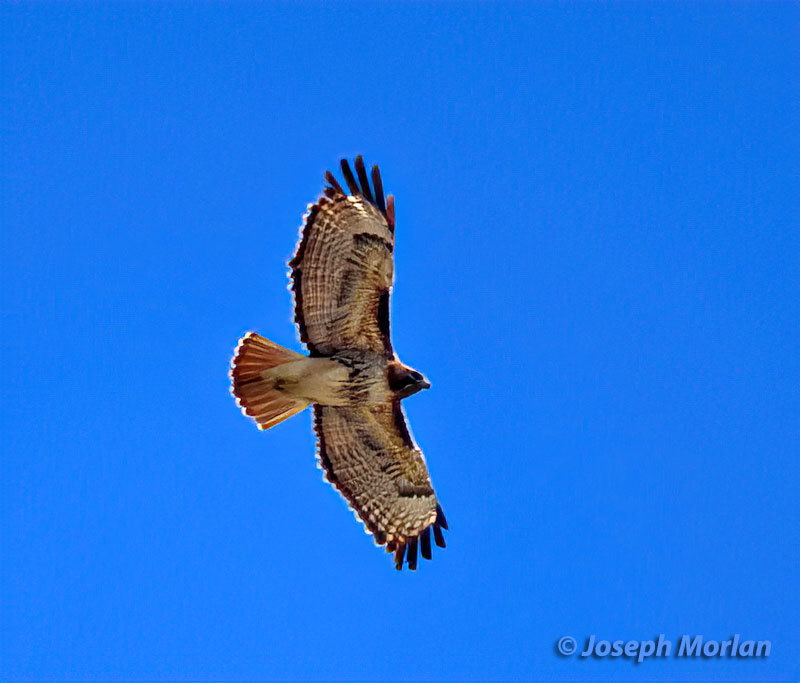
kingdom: Animalia
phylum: Chordata
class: Aves
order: Accipitriformes
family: Accipitridae
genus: Buteo
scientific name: Buteo jamaicensis
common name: Red-tailed hawk
